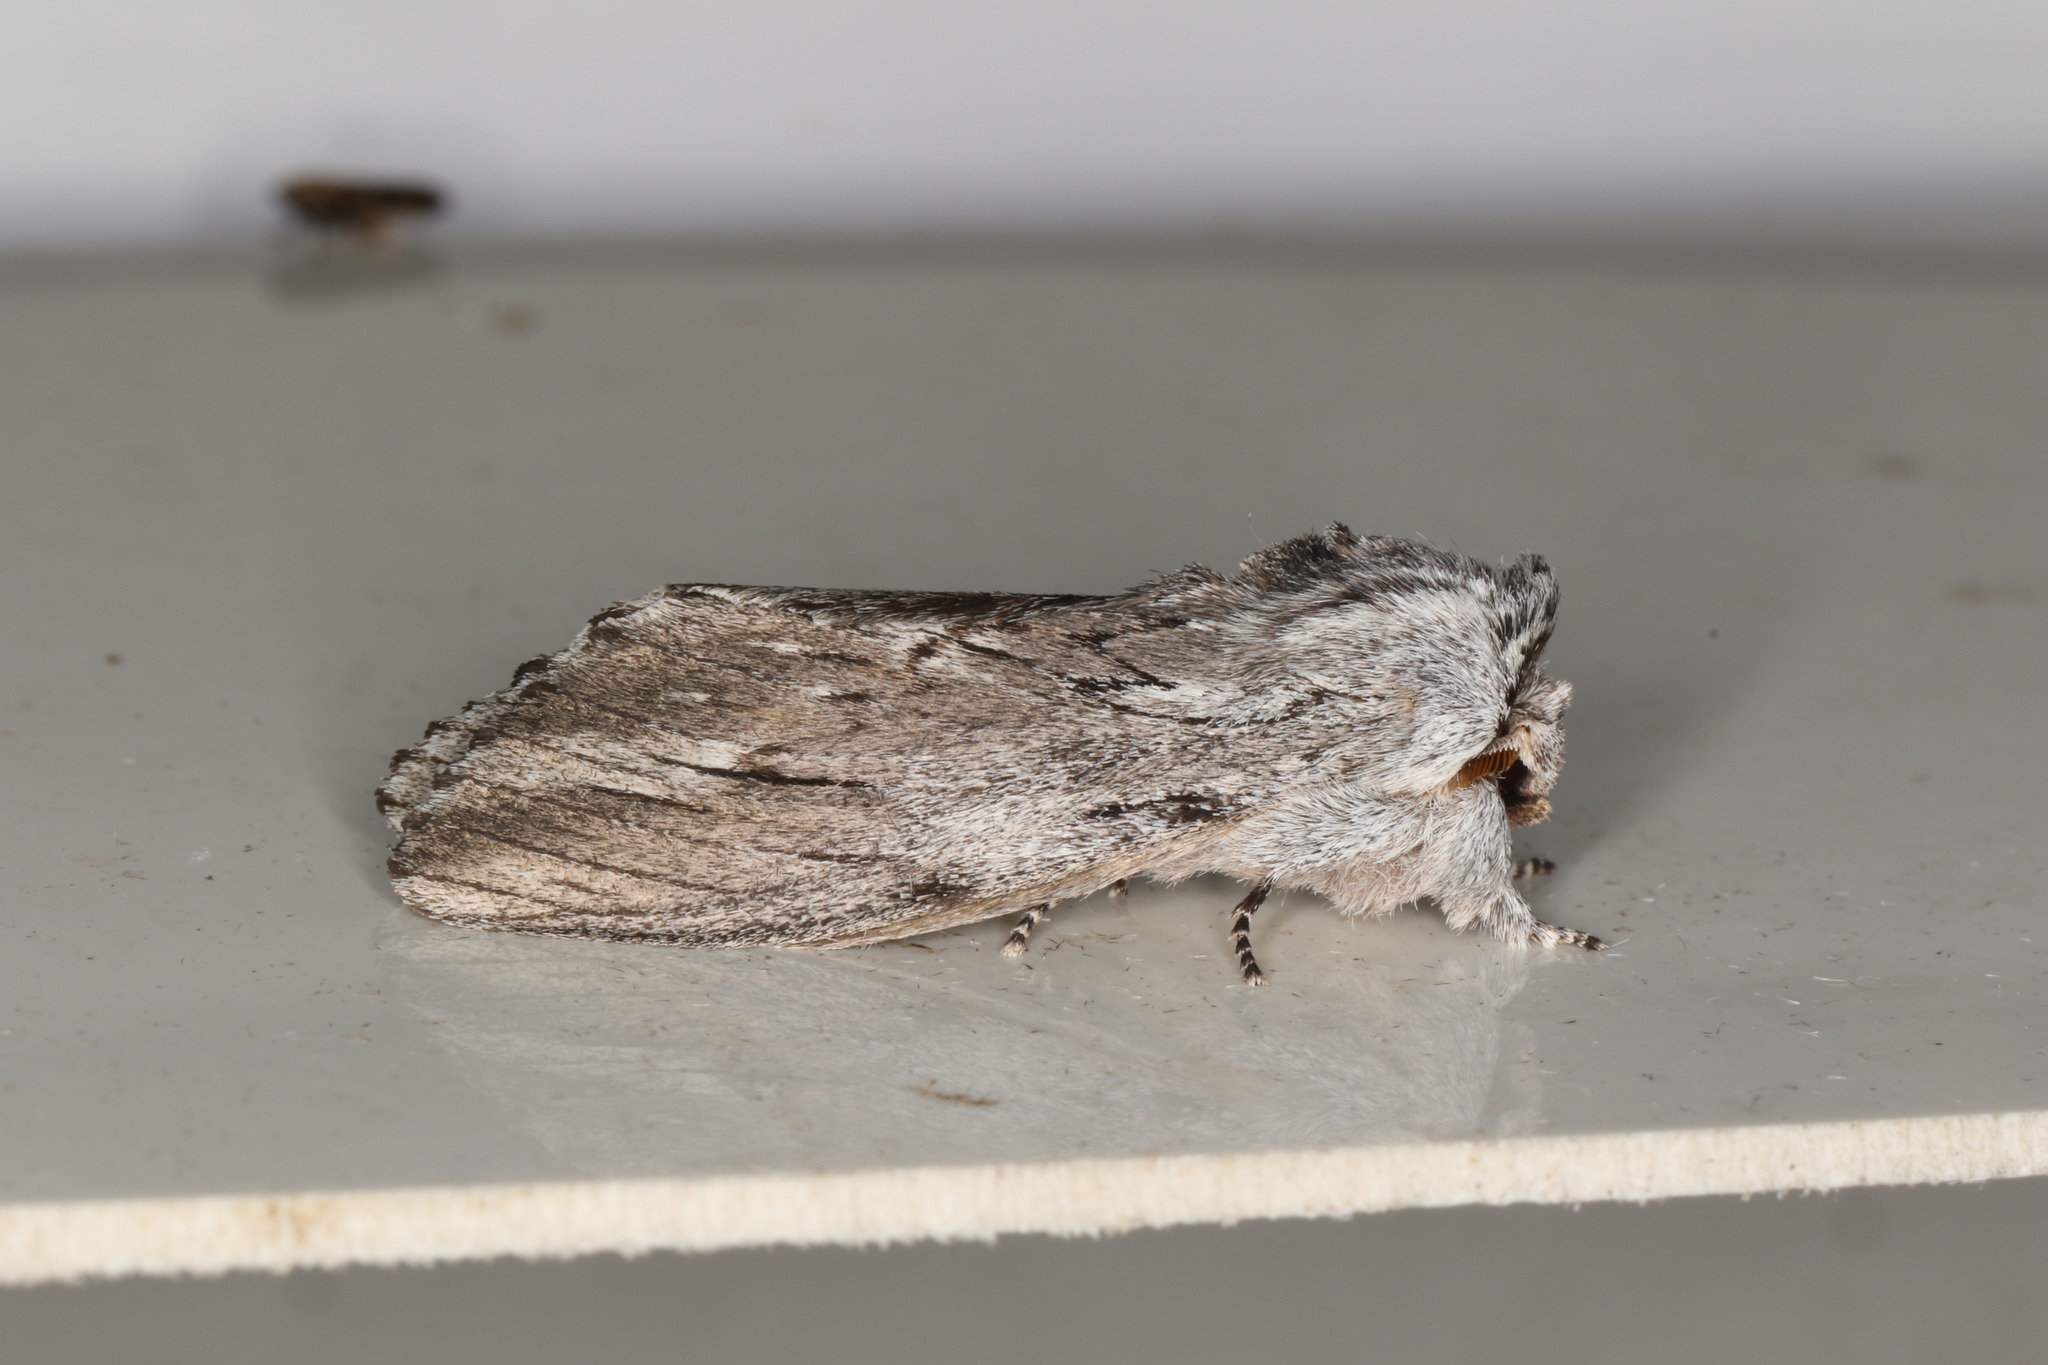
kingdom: Animalia
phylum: Arthropoda
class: Insecta
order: Lepidoptera
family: Notodontidae
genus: Destolmia
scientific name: Destolmia lineata
